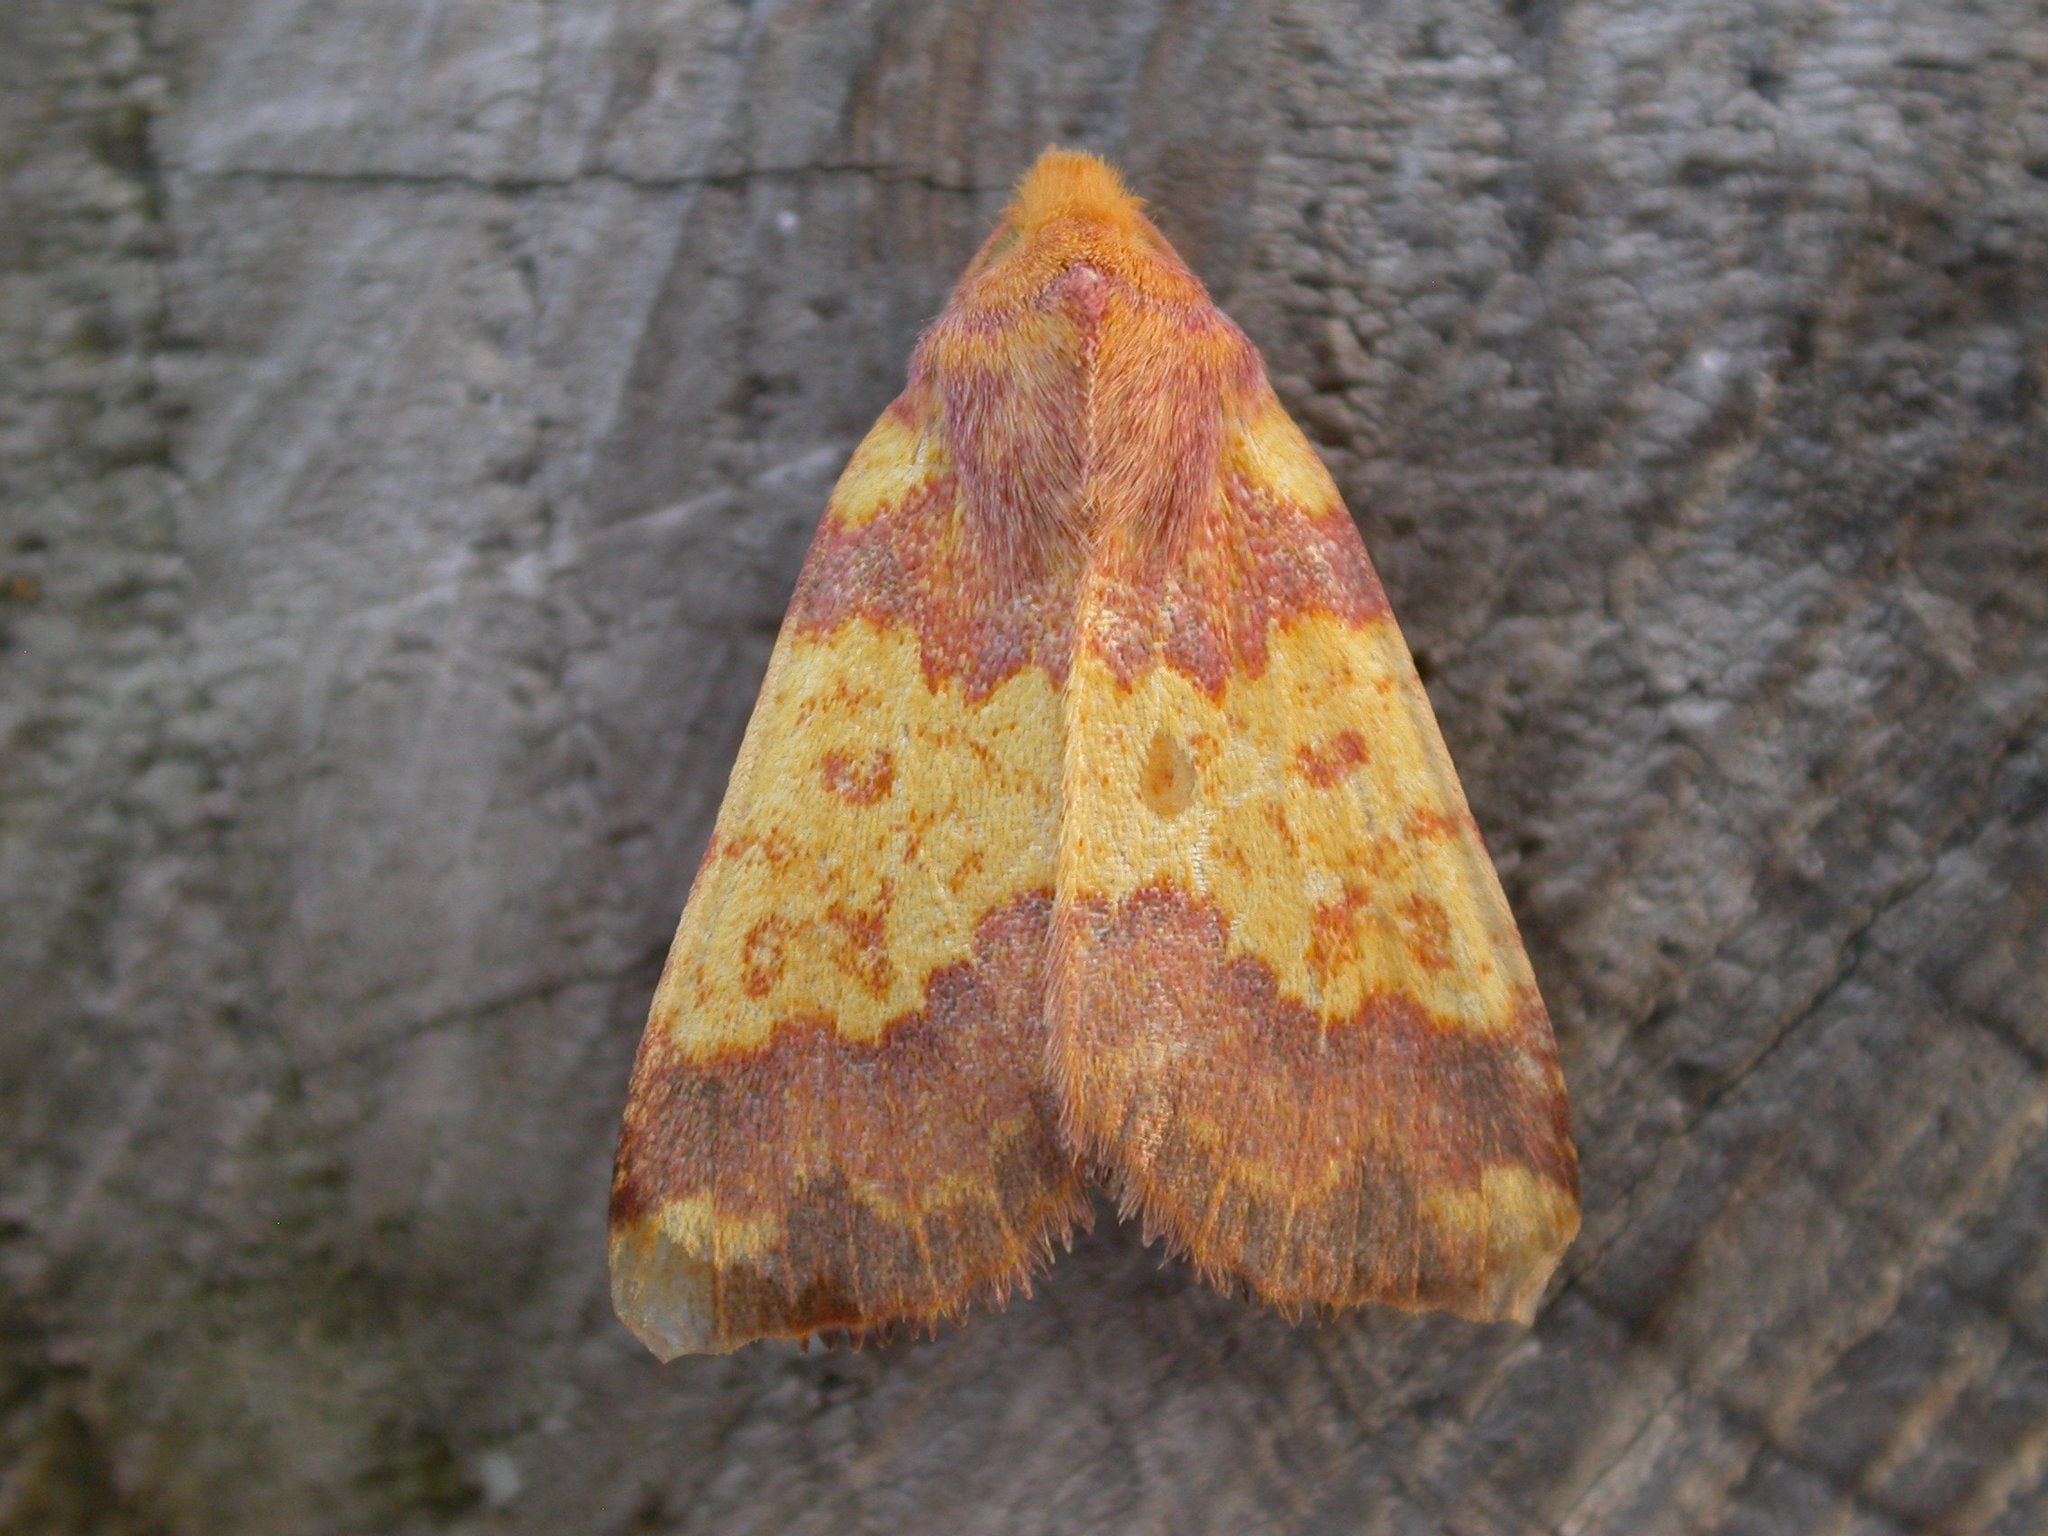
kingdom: Animalia
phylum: Arthropoda
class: Insecta
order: Lepidoptera
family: Noctuidae
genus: Tiliacea
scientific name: Tiliacea aurago
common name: Barred sallow
